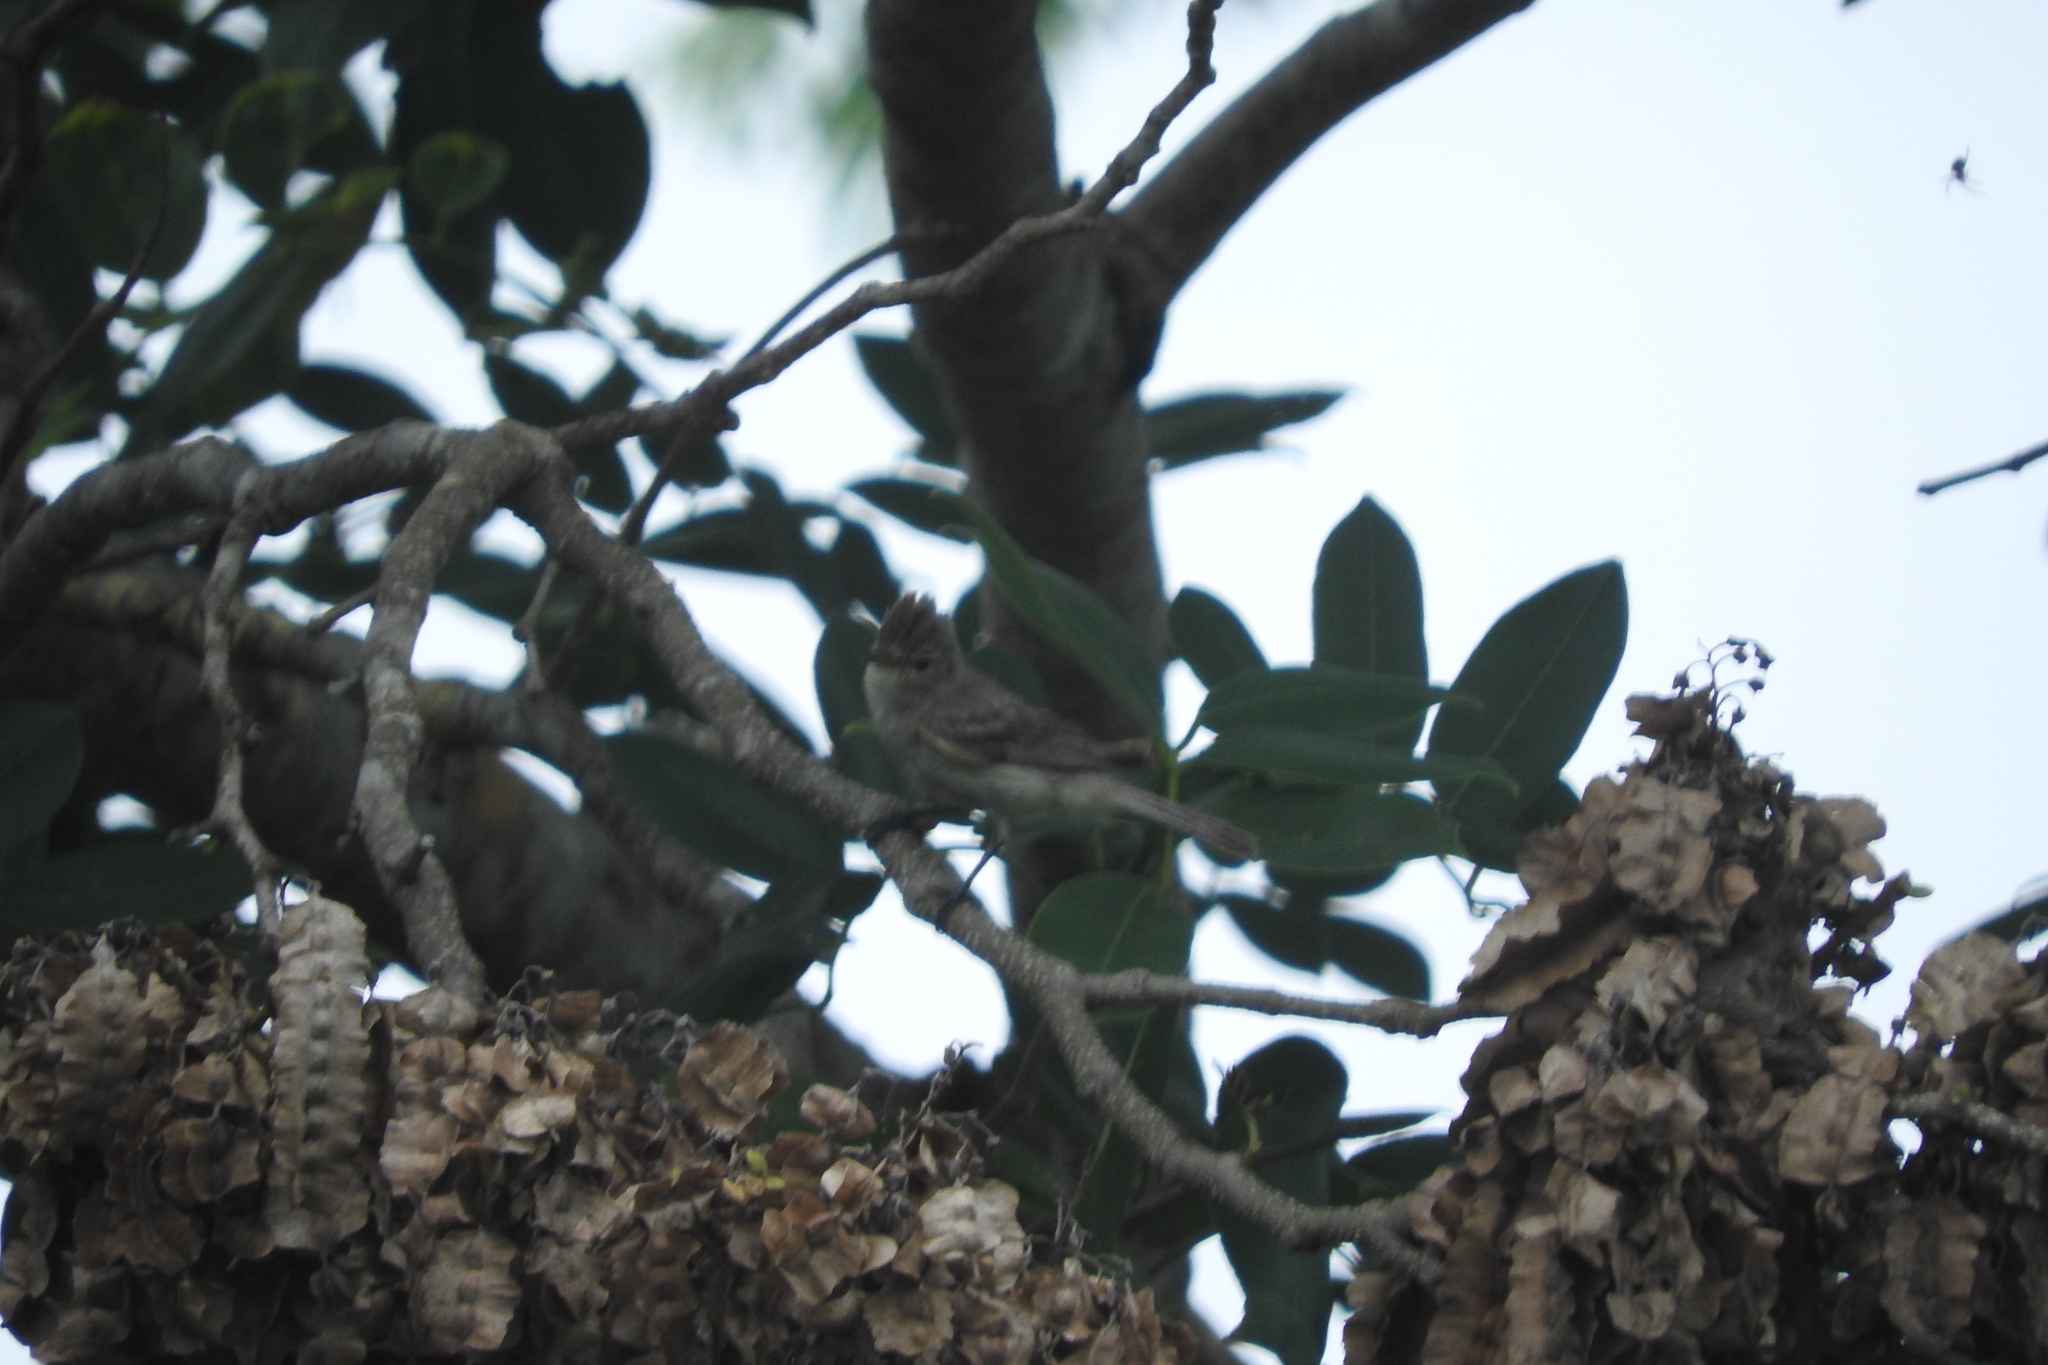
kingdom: Animalia
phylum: Chordata
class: Aves
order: Passeriformes
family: Tyrannidae
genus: Elaenia
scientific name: Elaenia flavogaster
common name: Yellow-bellied elaenia
